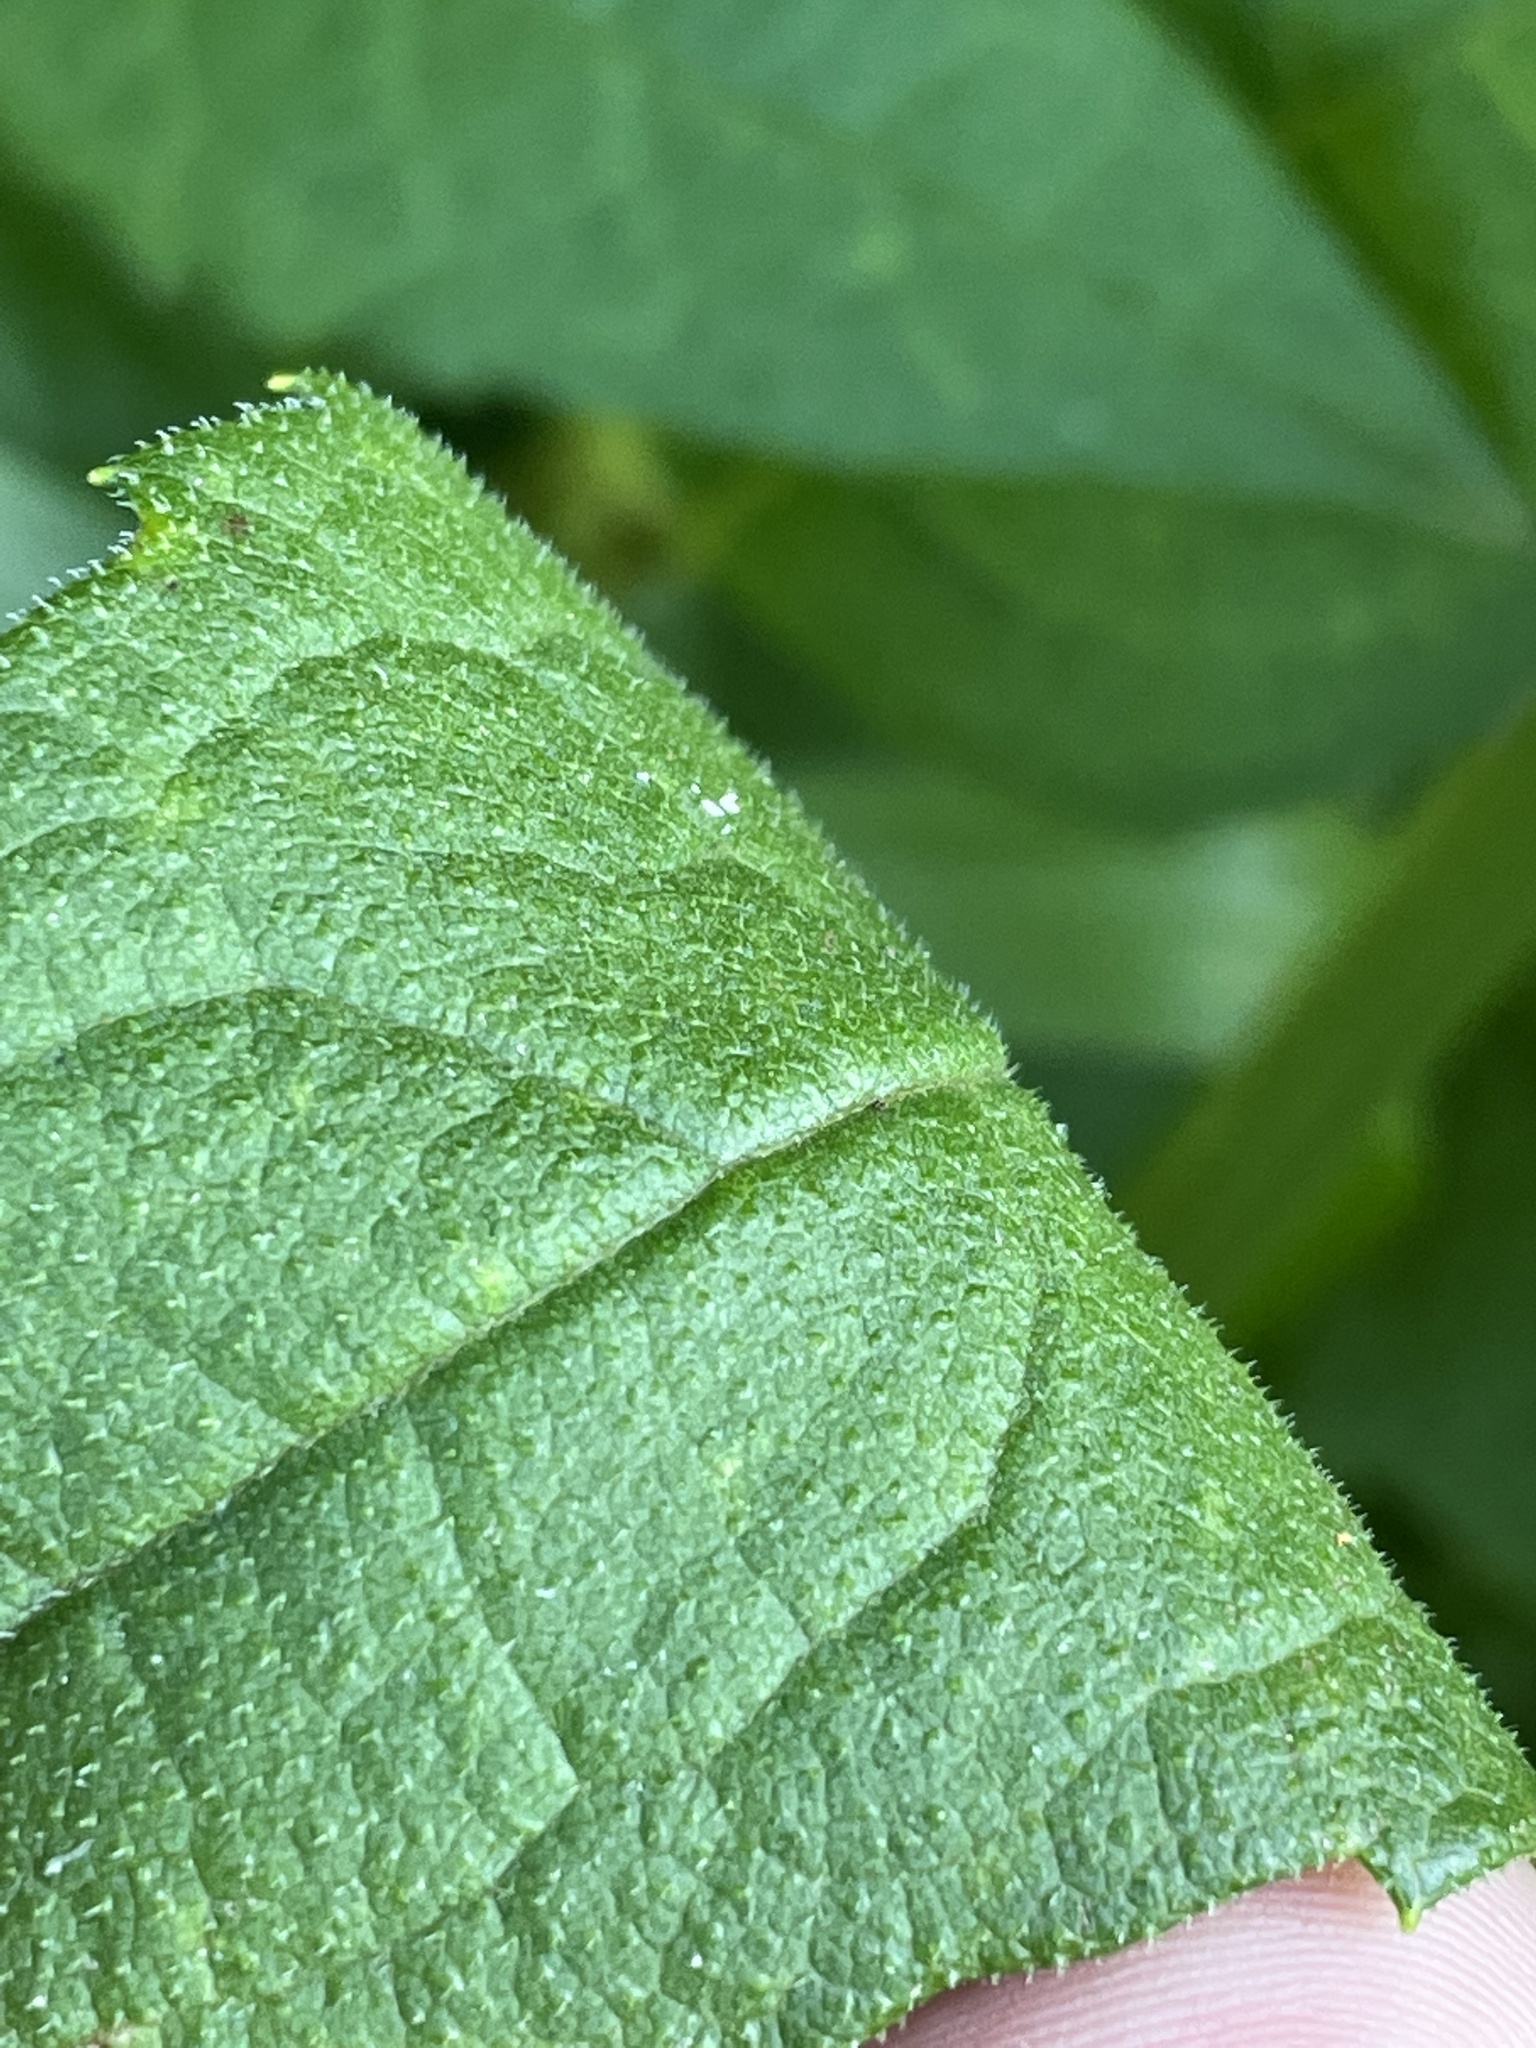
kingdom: Plantae
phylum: Tracheophyta
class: Magnoliopsida
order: Asterales
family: Asteraceae
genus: Silphium
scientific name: Silphium asteriscus
